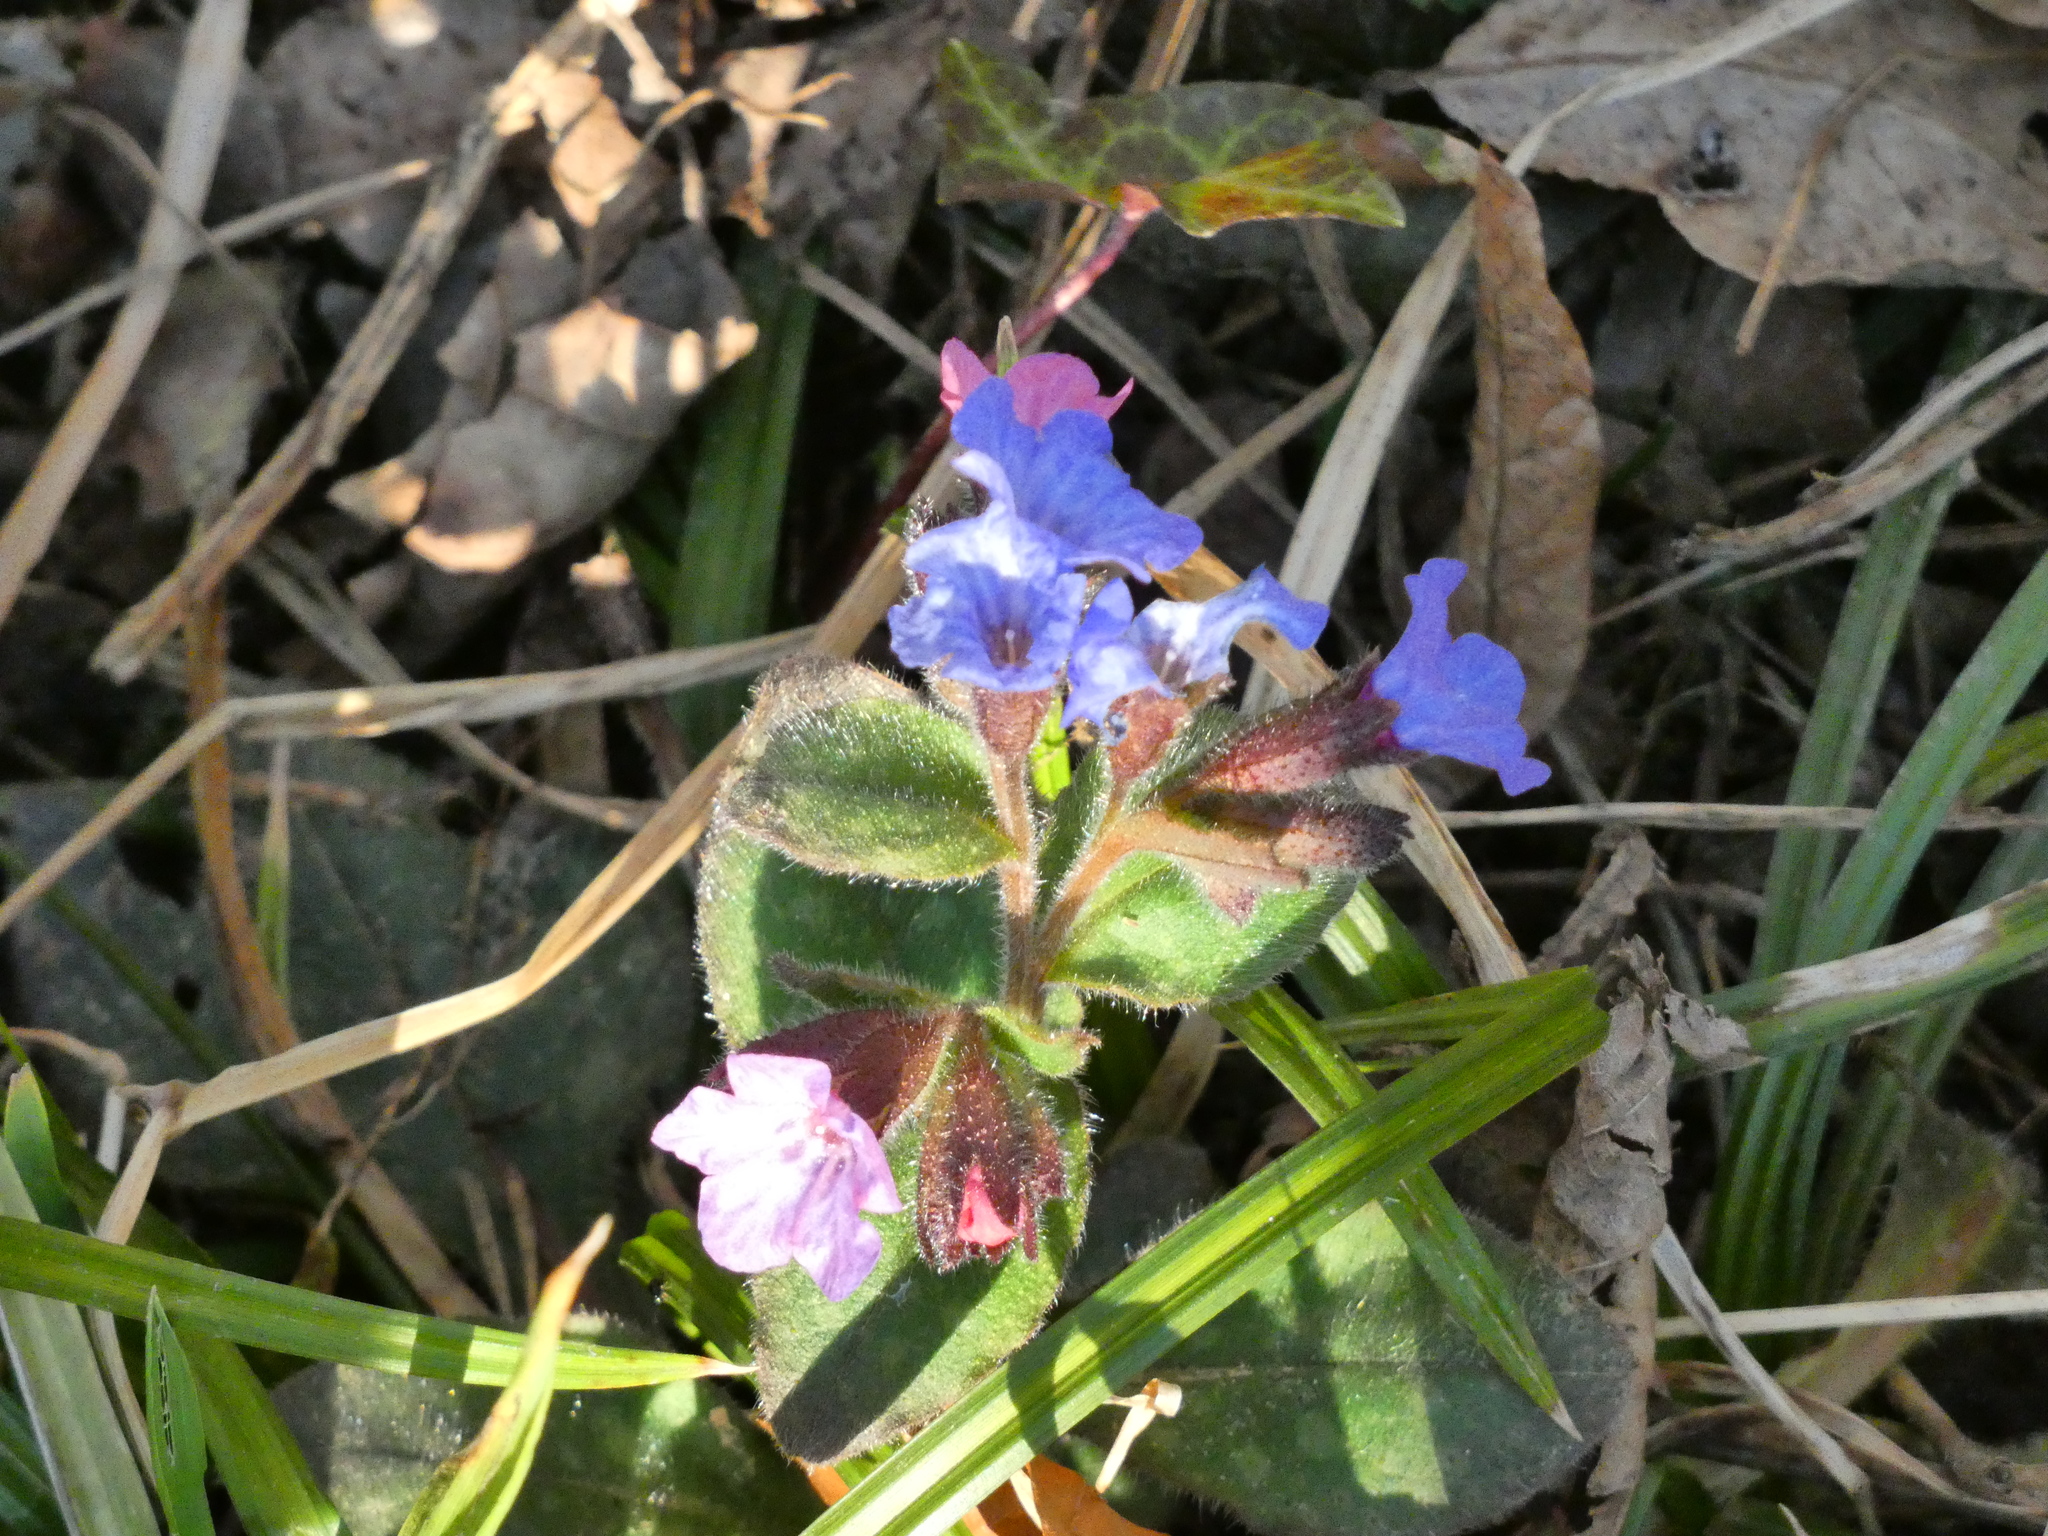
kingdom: Plantae
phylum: Tracheophyta
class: Magnoliopsida
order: Boraginales
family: Boraginaceae
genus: Pulmonaria
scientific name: Pulmonaria officinalis
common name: Lungwort
